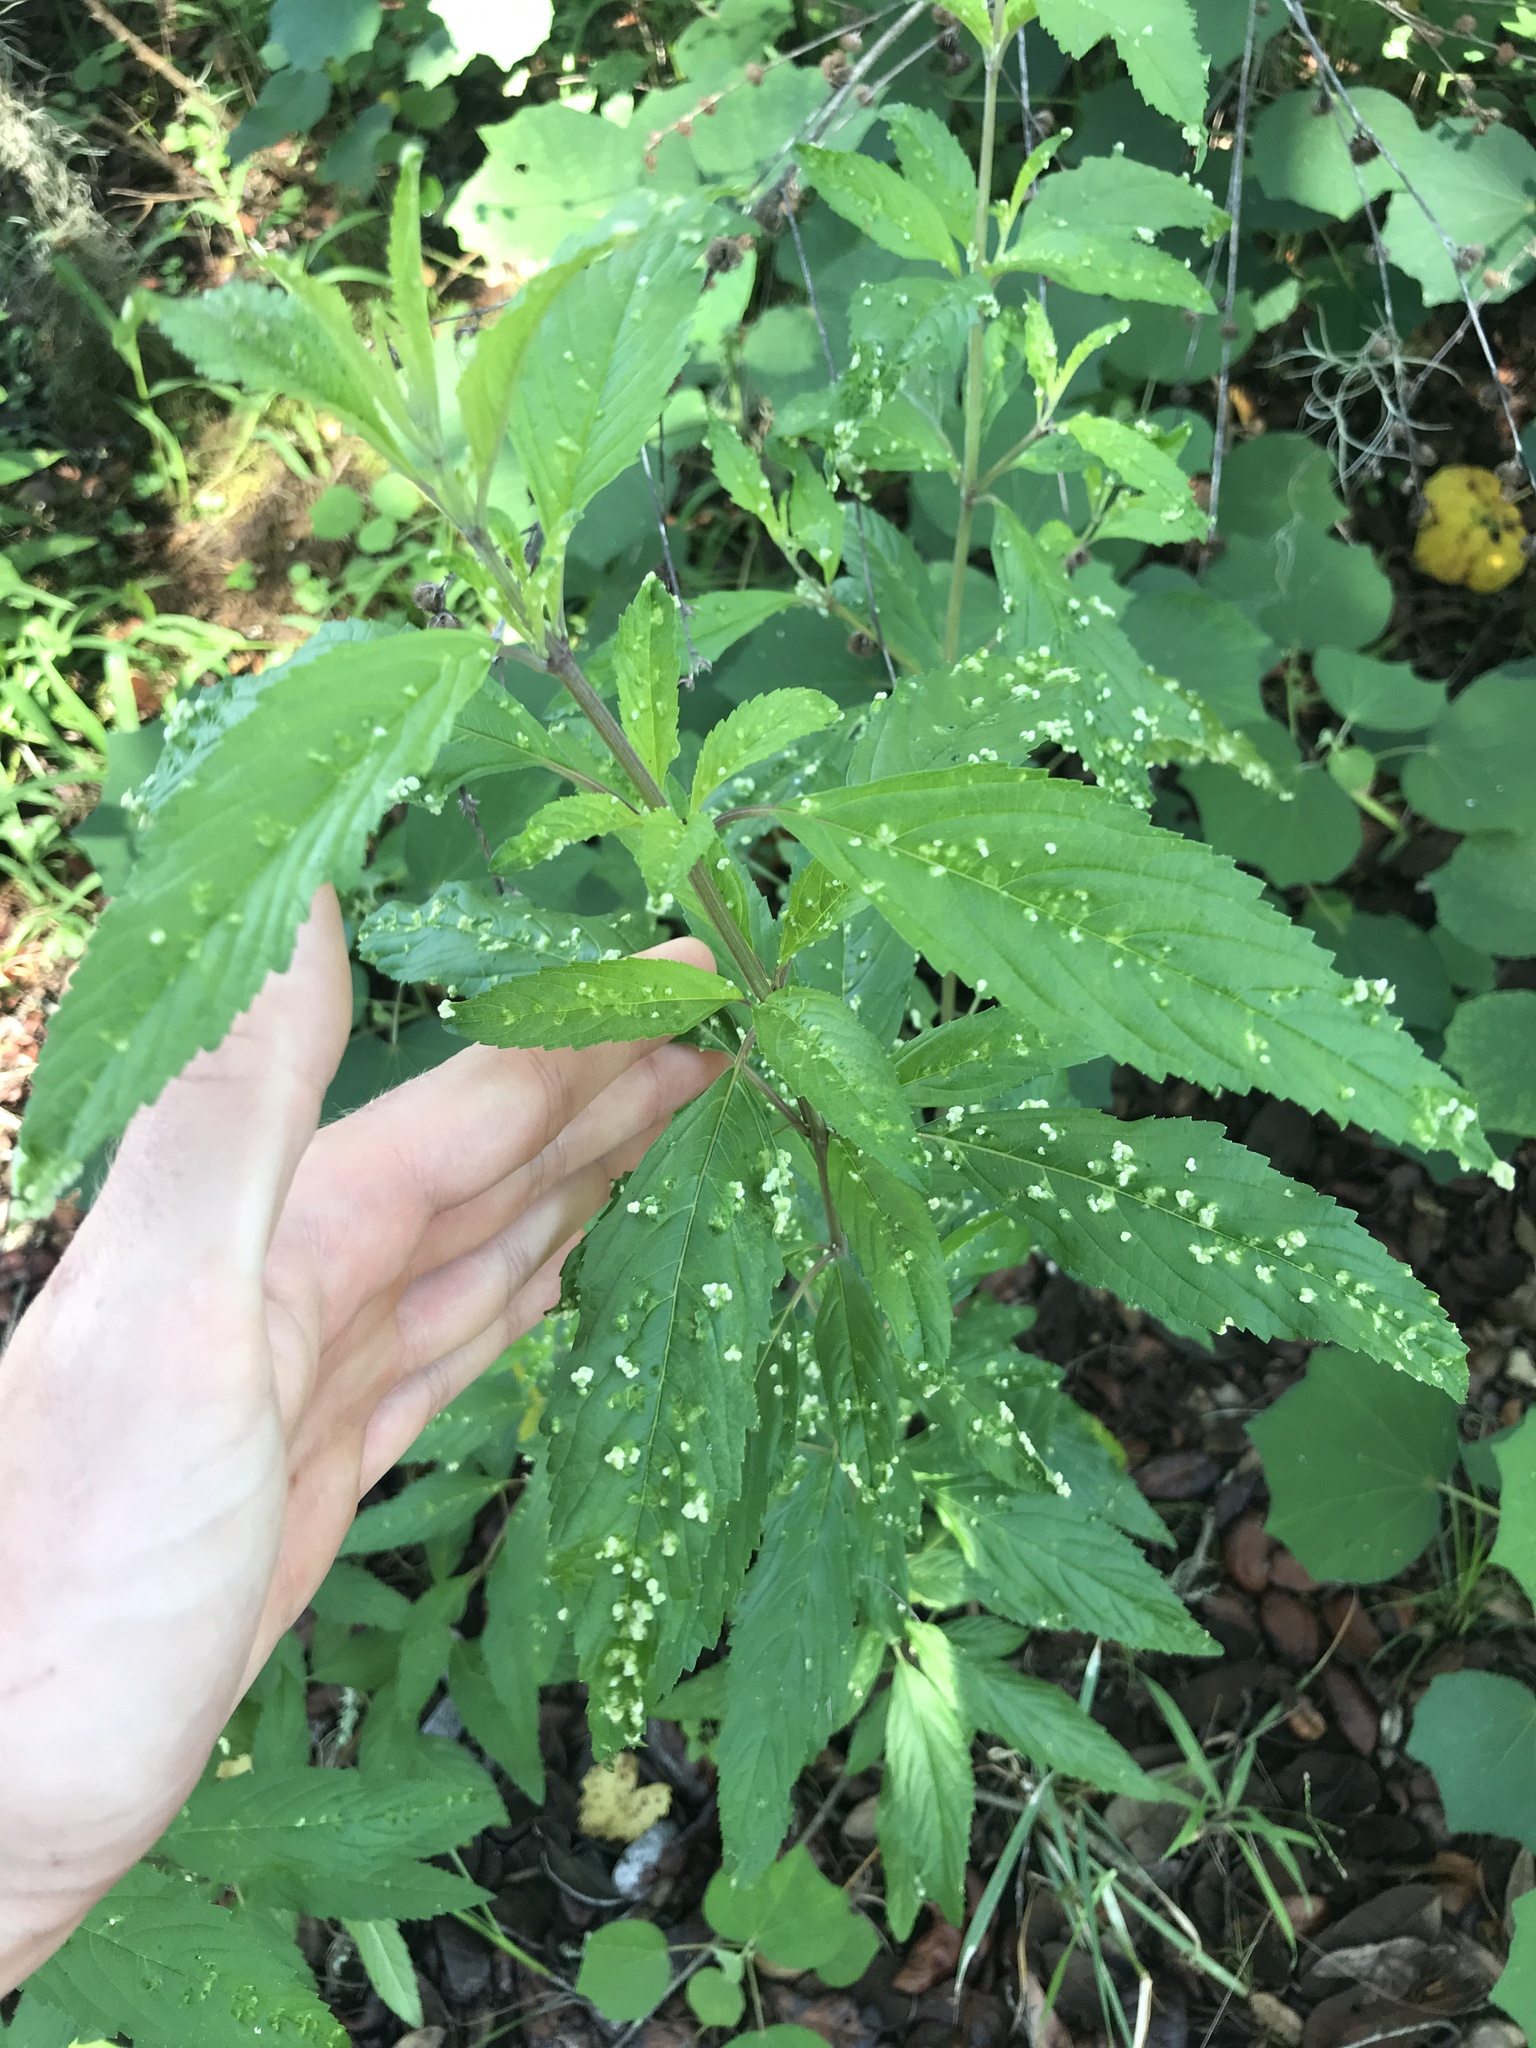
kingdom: Plantae
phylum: Tracheophyta
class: Magnoliopsida
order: Lamiales
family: Lamiaceae
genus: Condea
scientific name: Condea verticillata
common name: John charles
